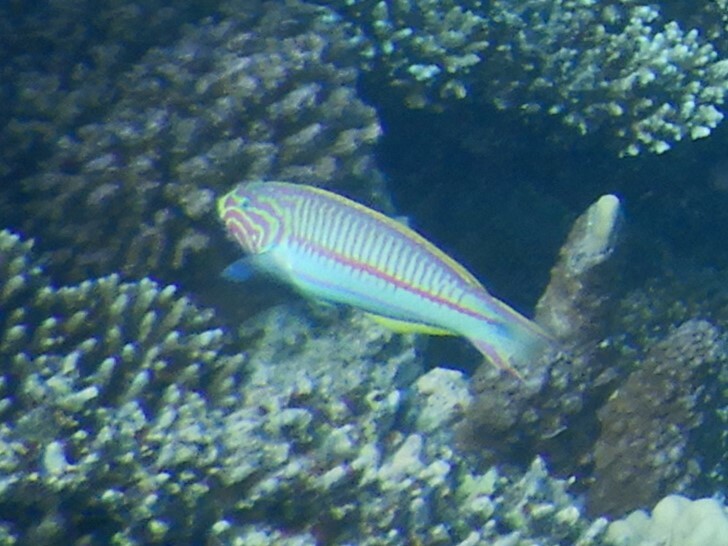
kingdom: Animalia
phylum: Chordata
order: Perciformes
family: Labridae
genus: Thalassoma
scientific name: Thalassoma rueppellii
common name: Klunzinger's wrasse
